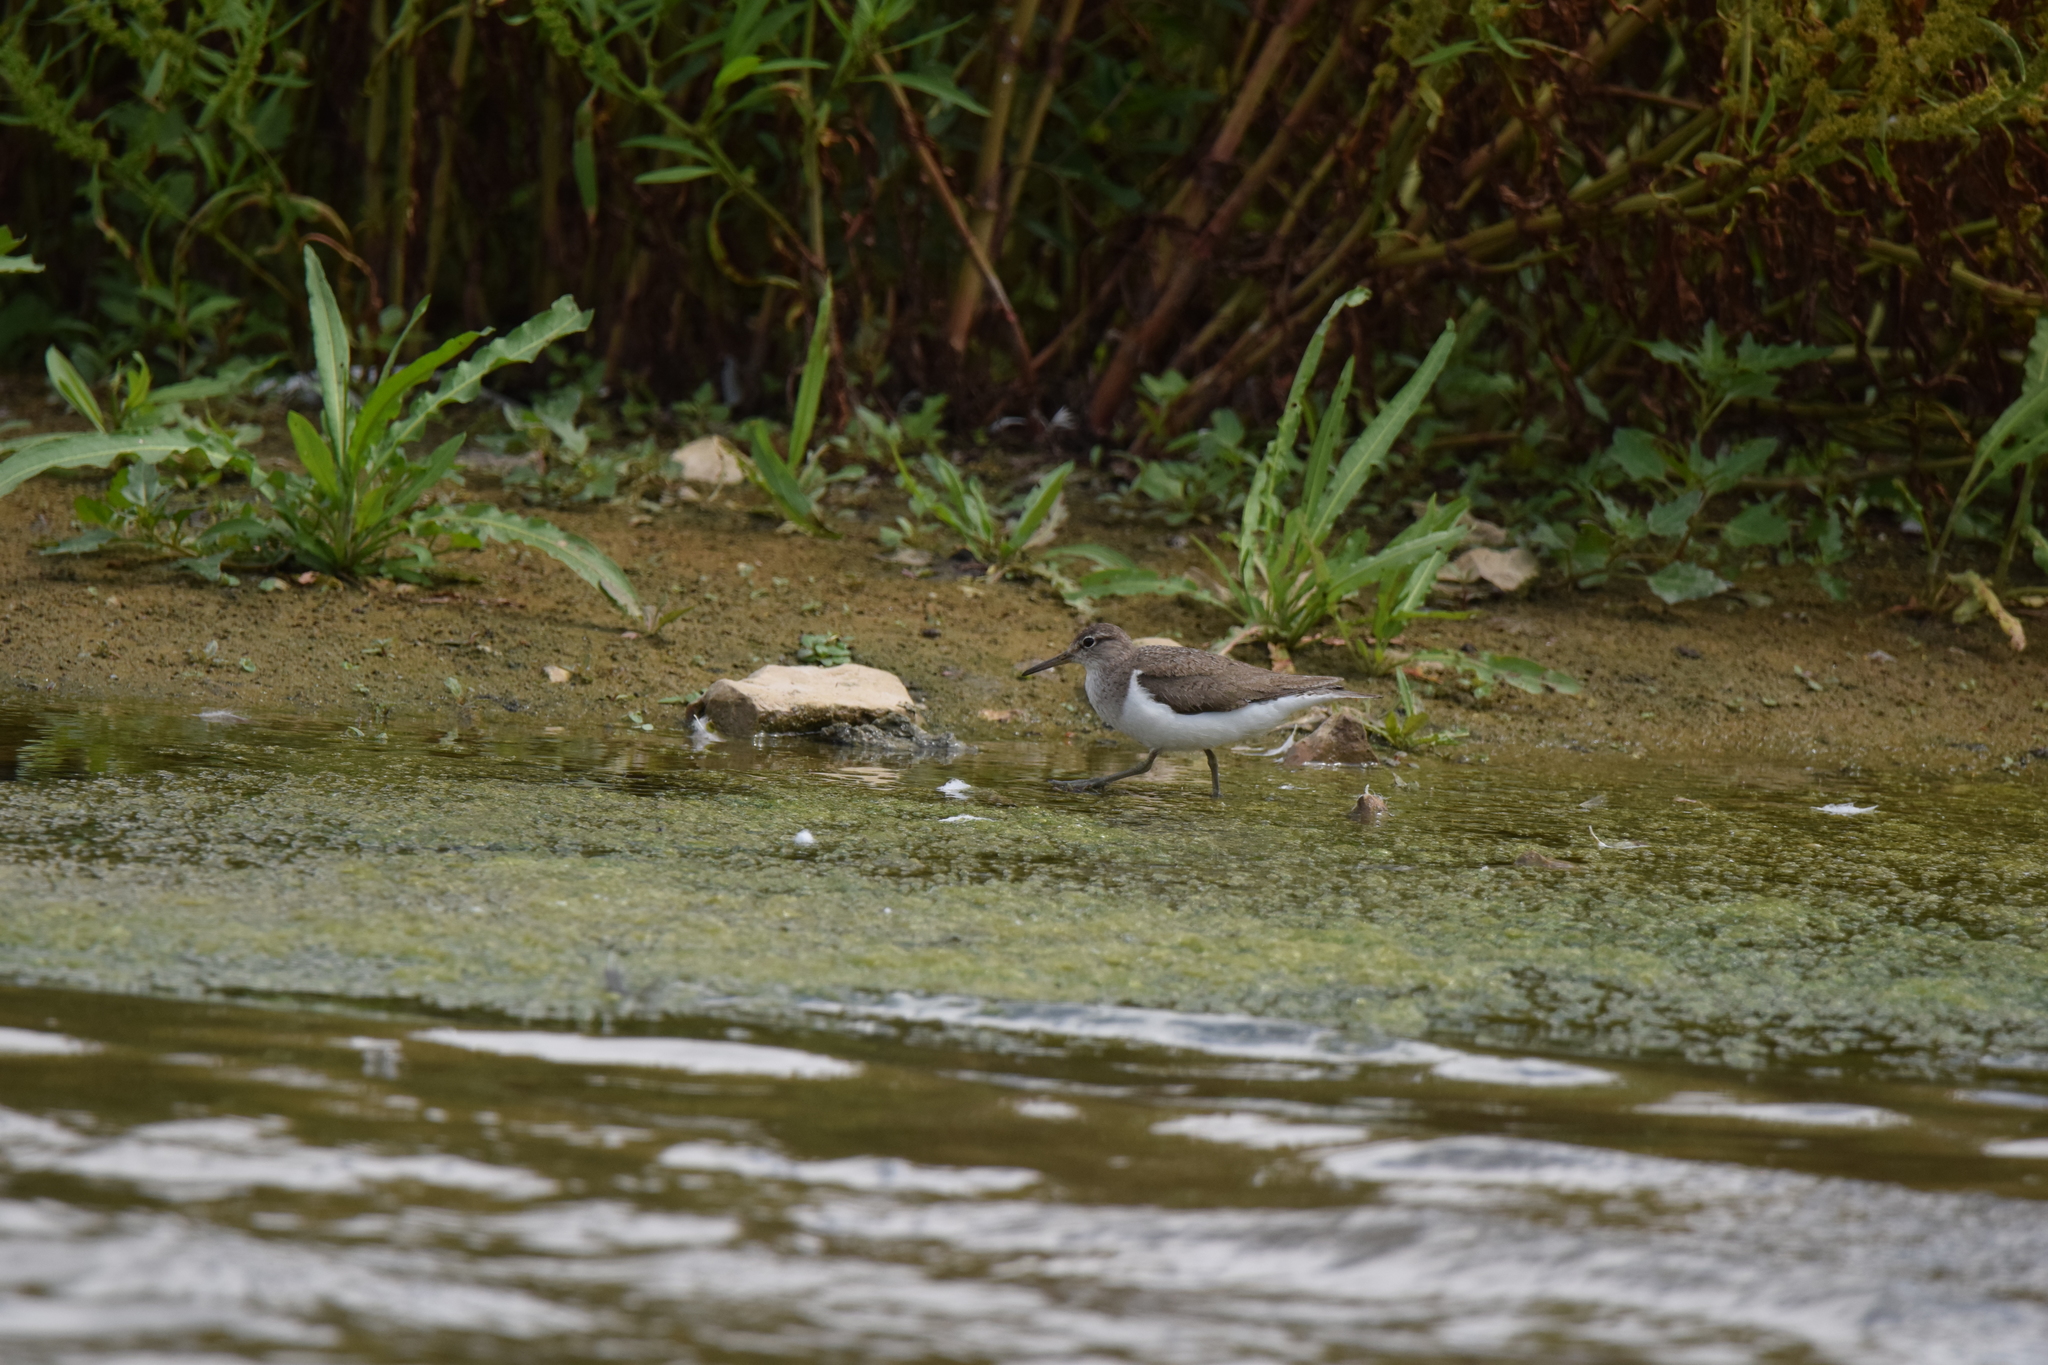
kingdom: Animalia
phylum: Chordata
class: Aves
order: Charadriiformes
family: Scolopacidae
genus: Actitis
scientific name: Actitis hypoleucos
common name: Common sandpiper
